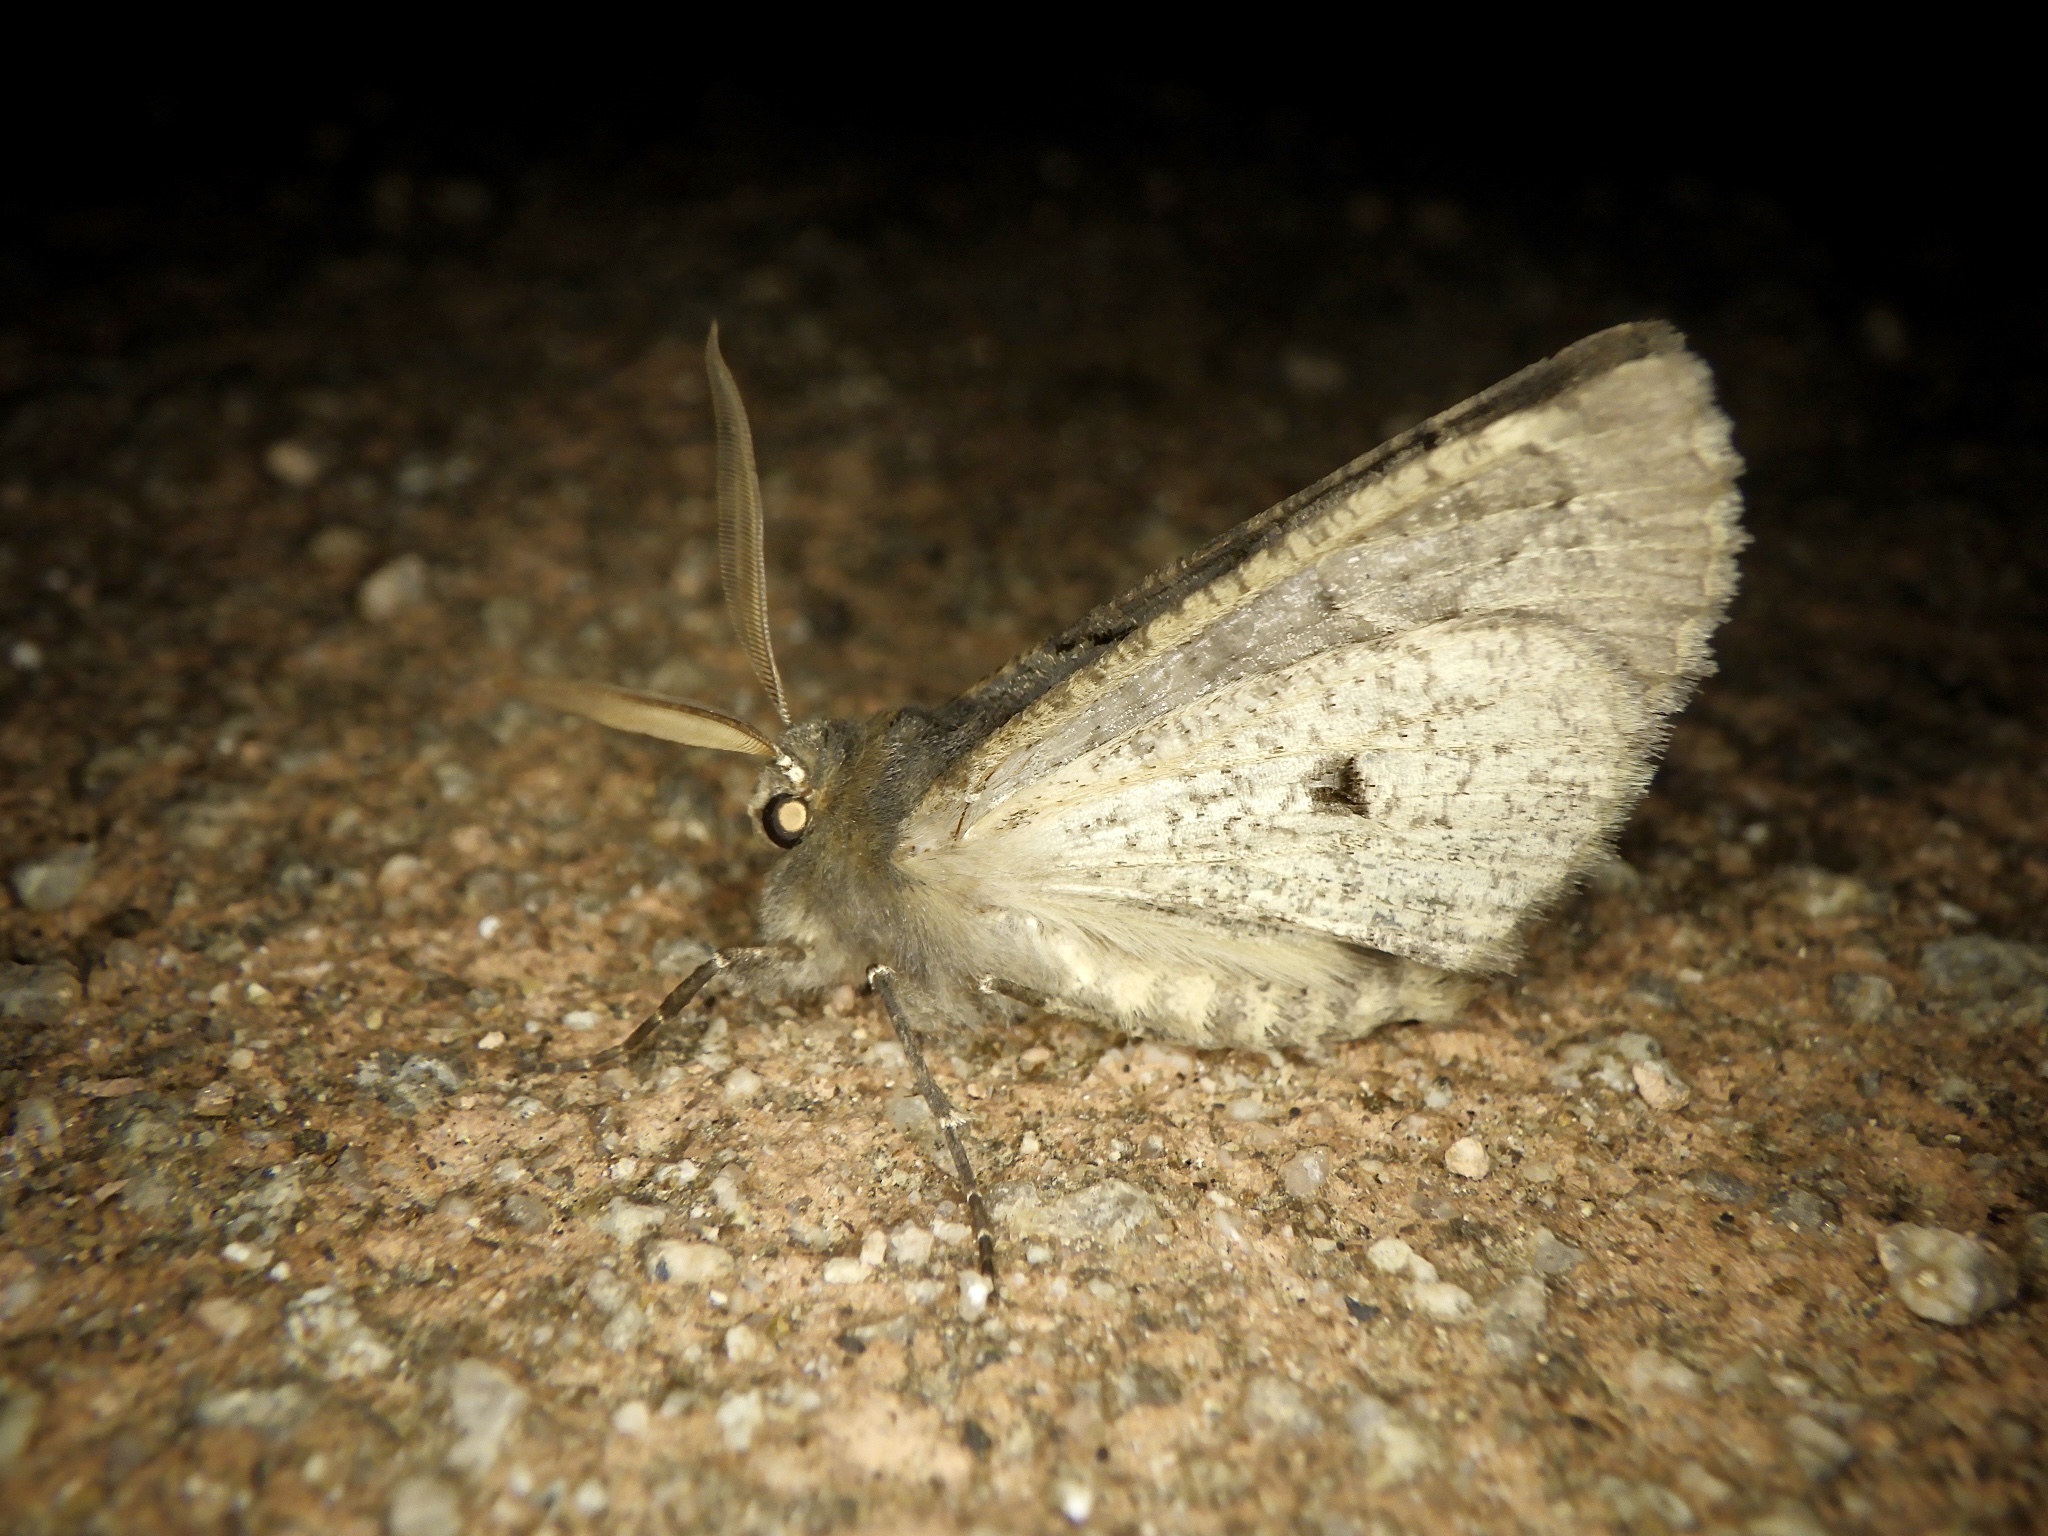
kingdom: Animalia
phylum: Arthropoda
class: Insecta
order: Lepidoptera
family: Geometridae
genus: Pachyligia
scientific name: Pachyligia dolosa
